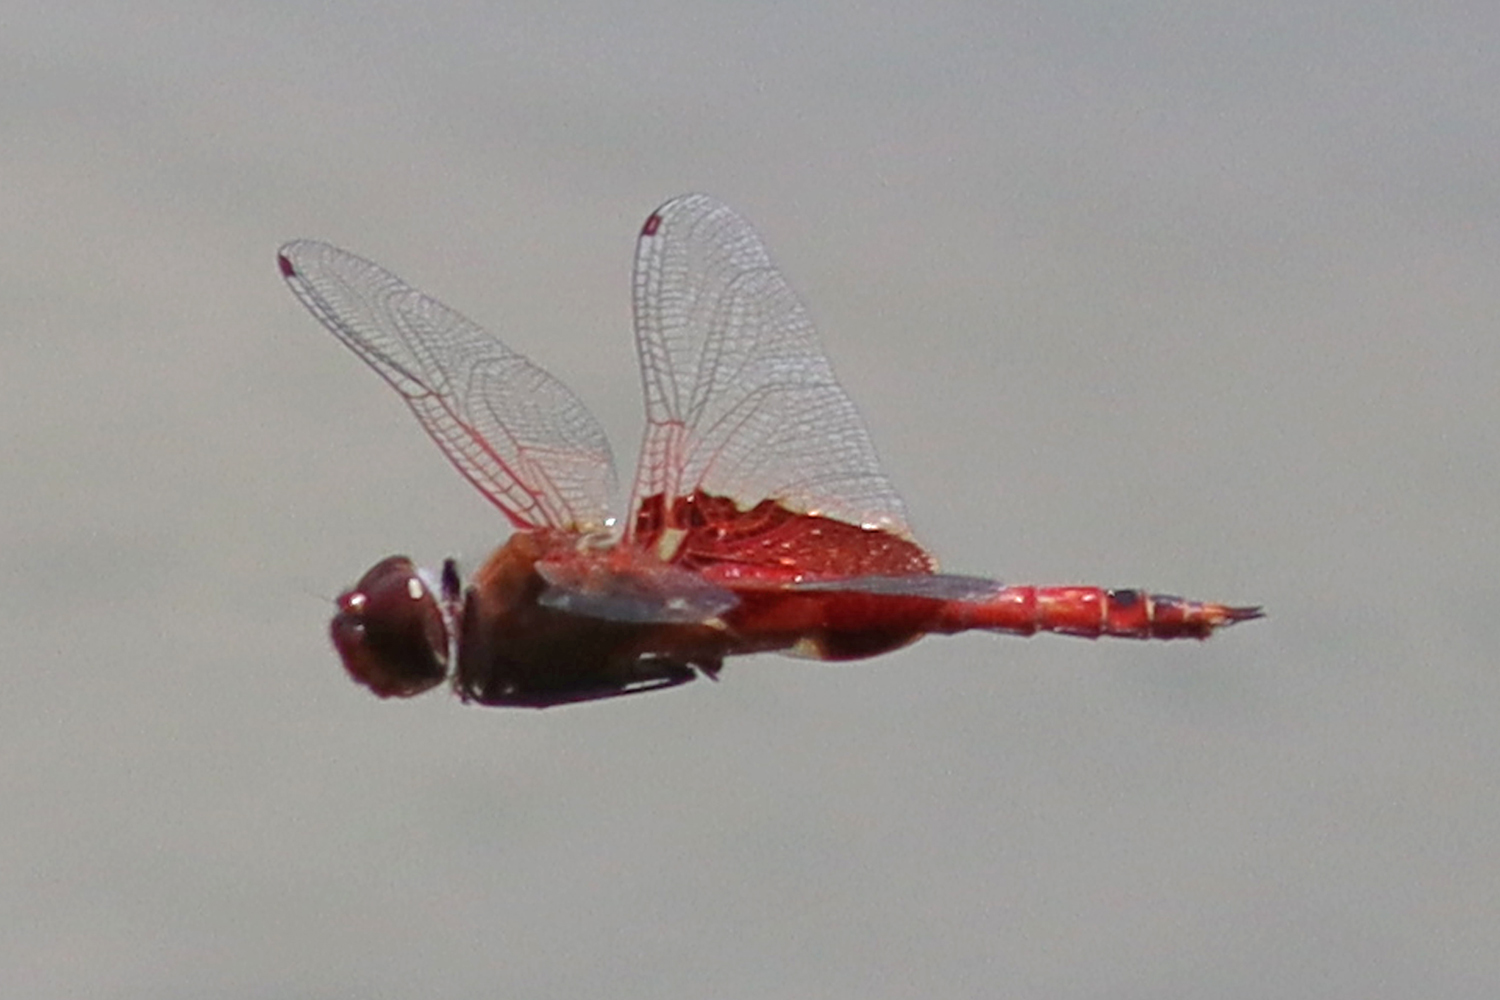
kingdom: Animalia
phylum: Arthropoda
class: Insecta
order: Odonata
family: Libellulidae
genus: Tramea
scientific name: Tramea onusta
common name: Red saddlebags
